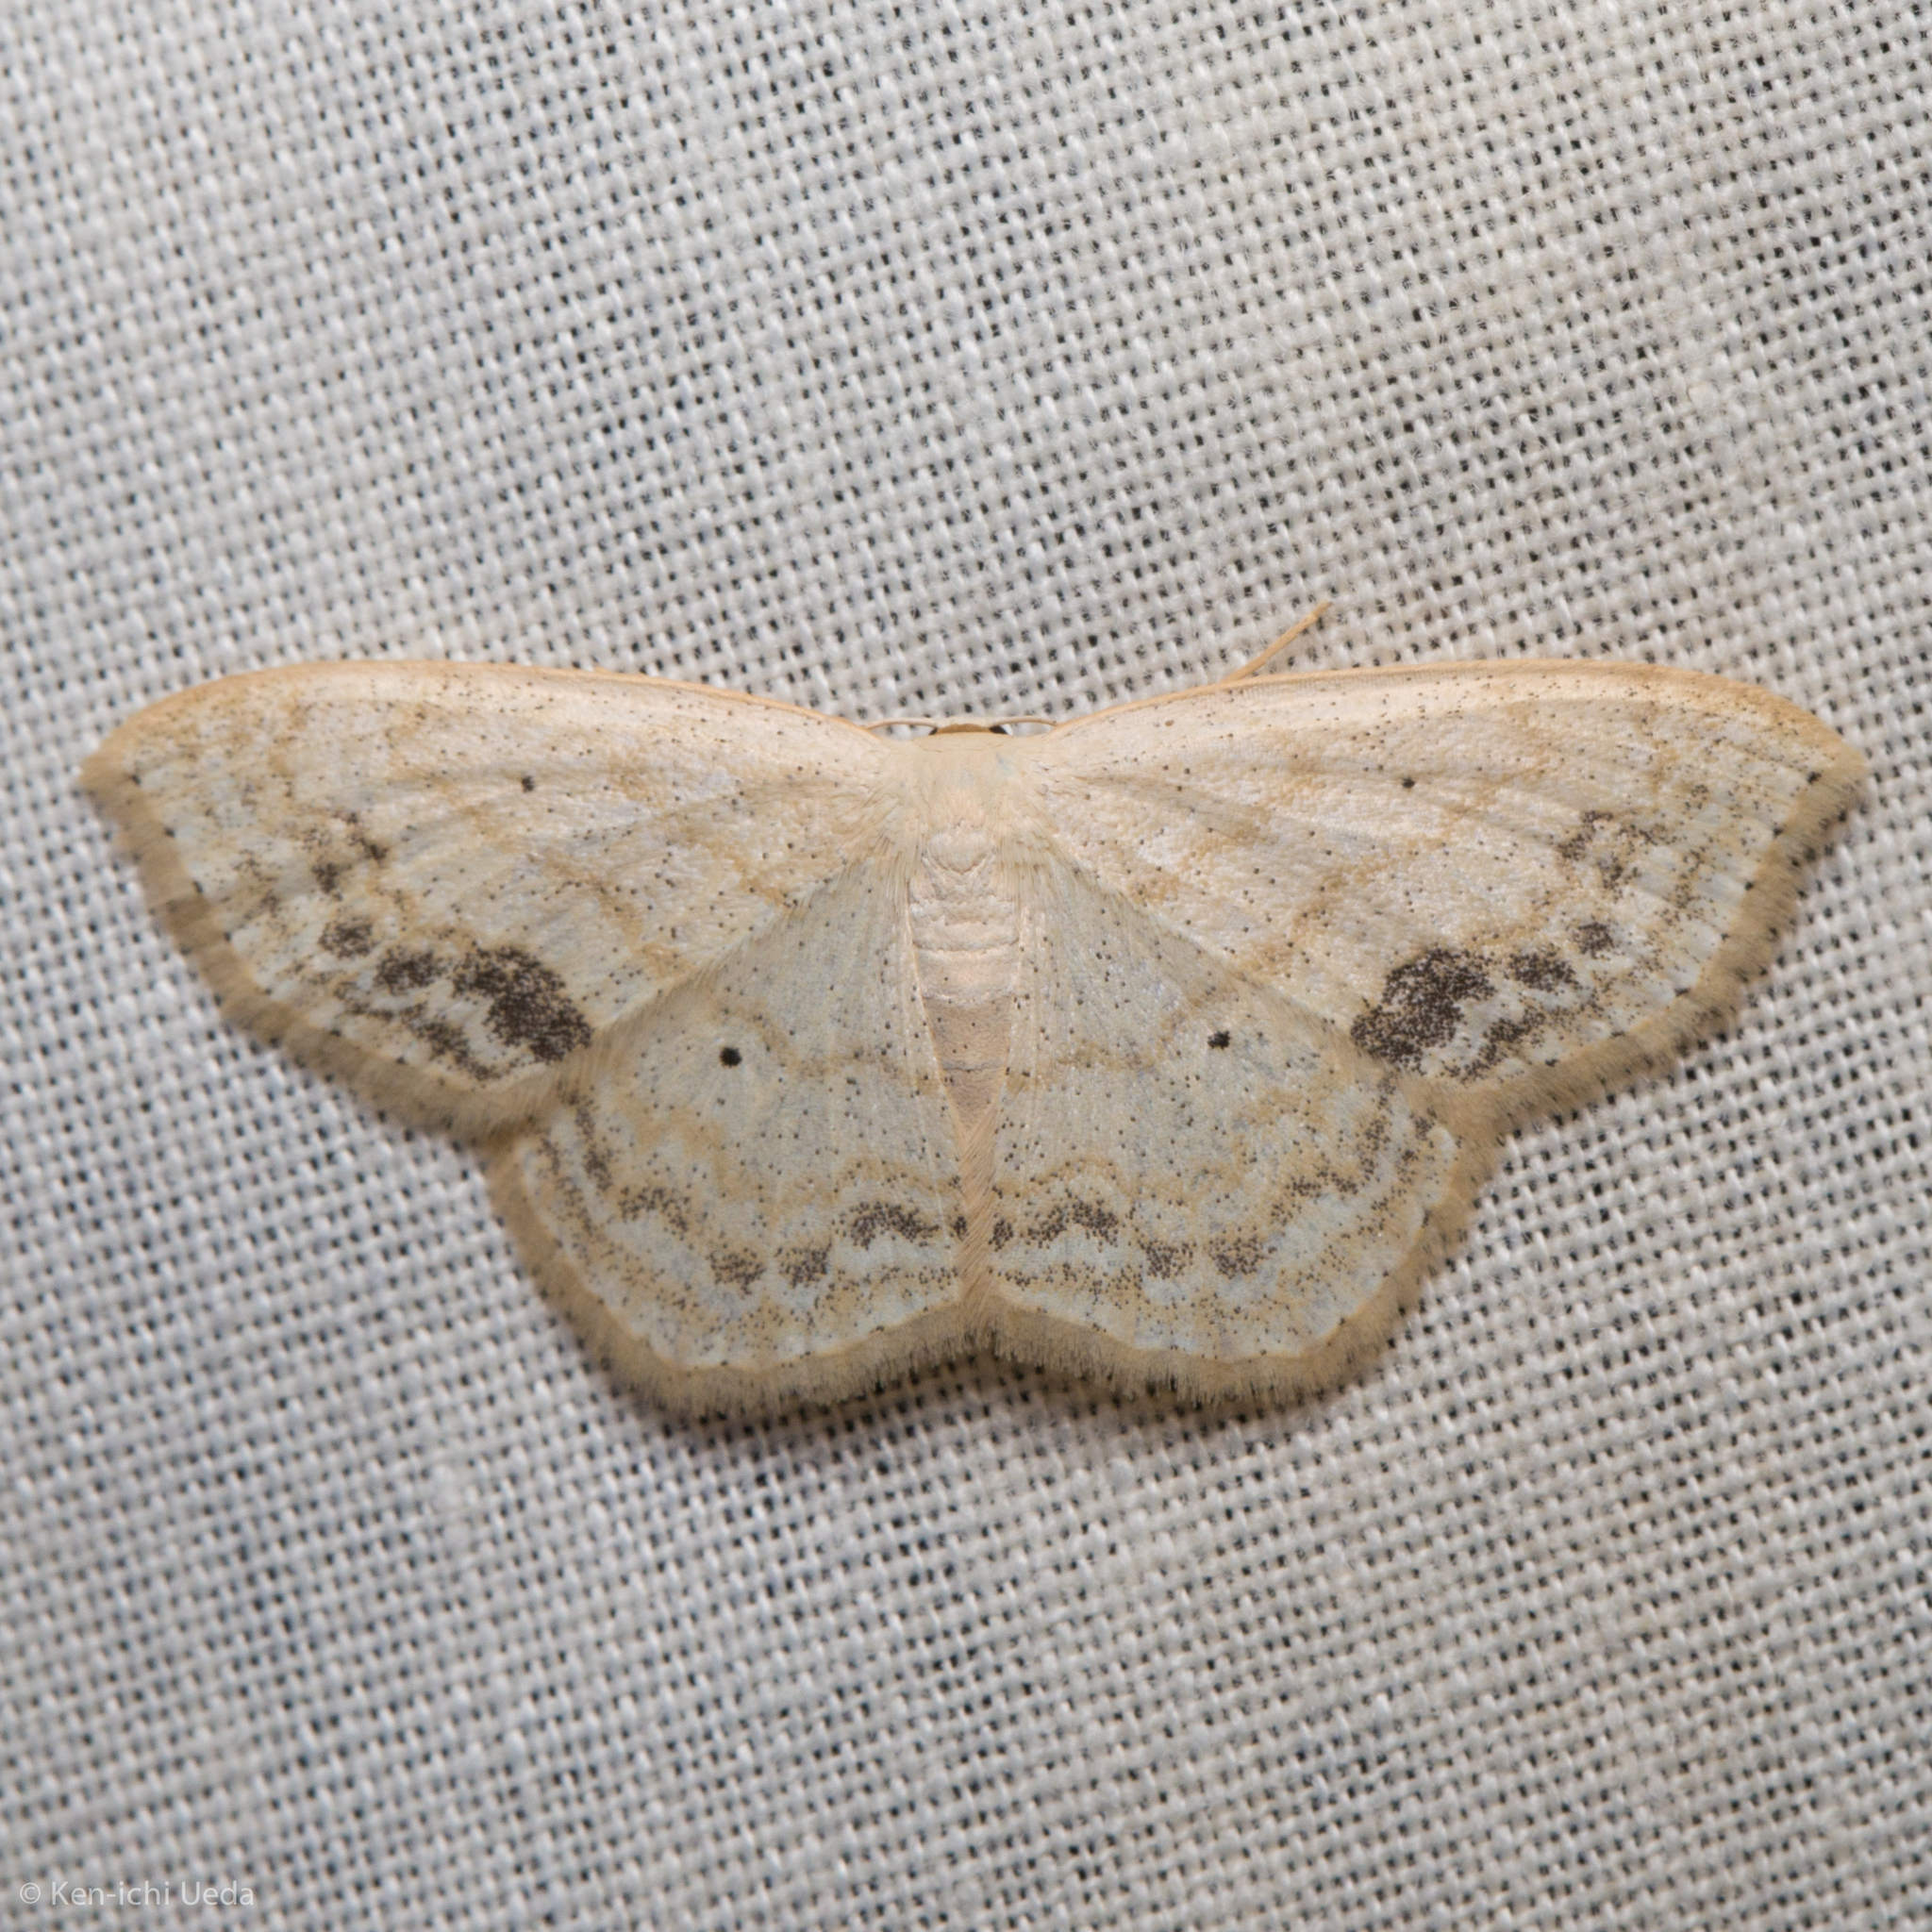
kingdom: Animalia
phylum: Arthropoda
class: Insecta
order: Lepidoptera
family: Geometridae
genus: Scopula
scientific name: Scopula limboundata
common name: Large lace border
